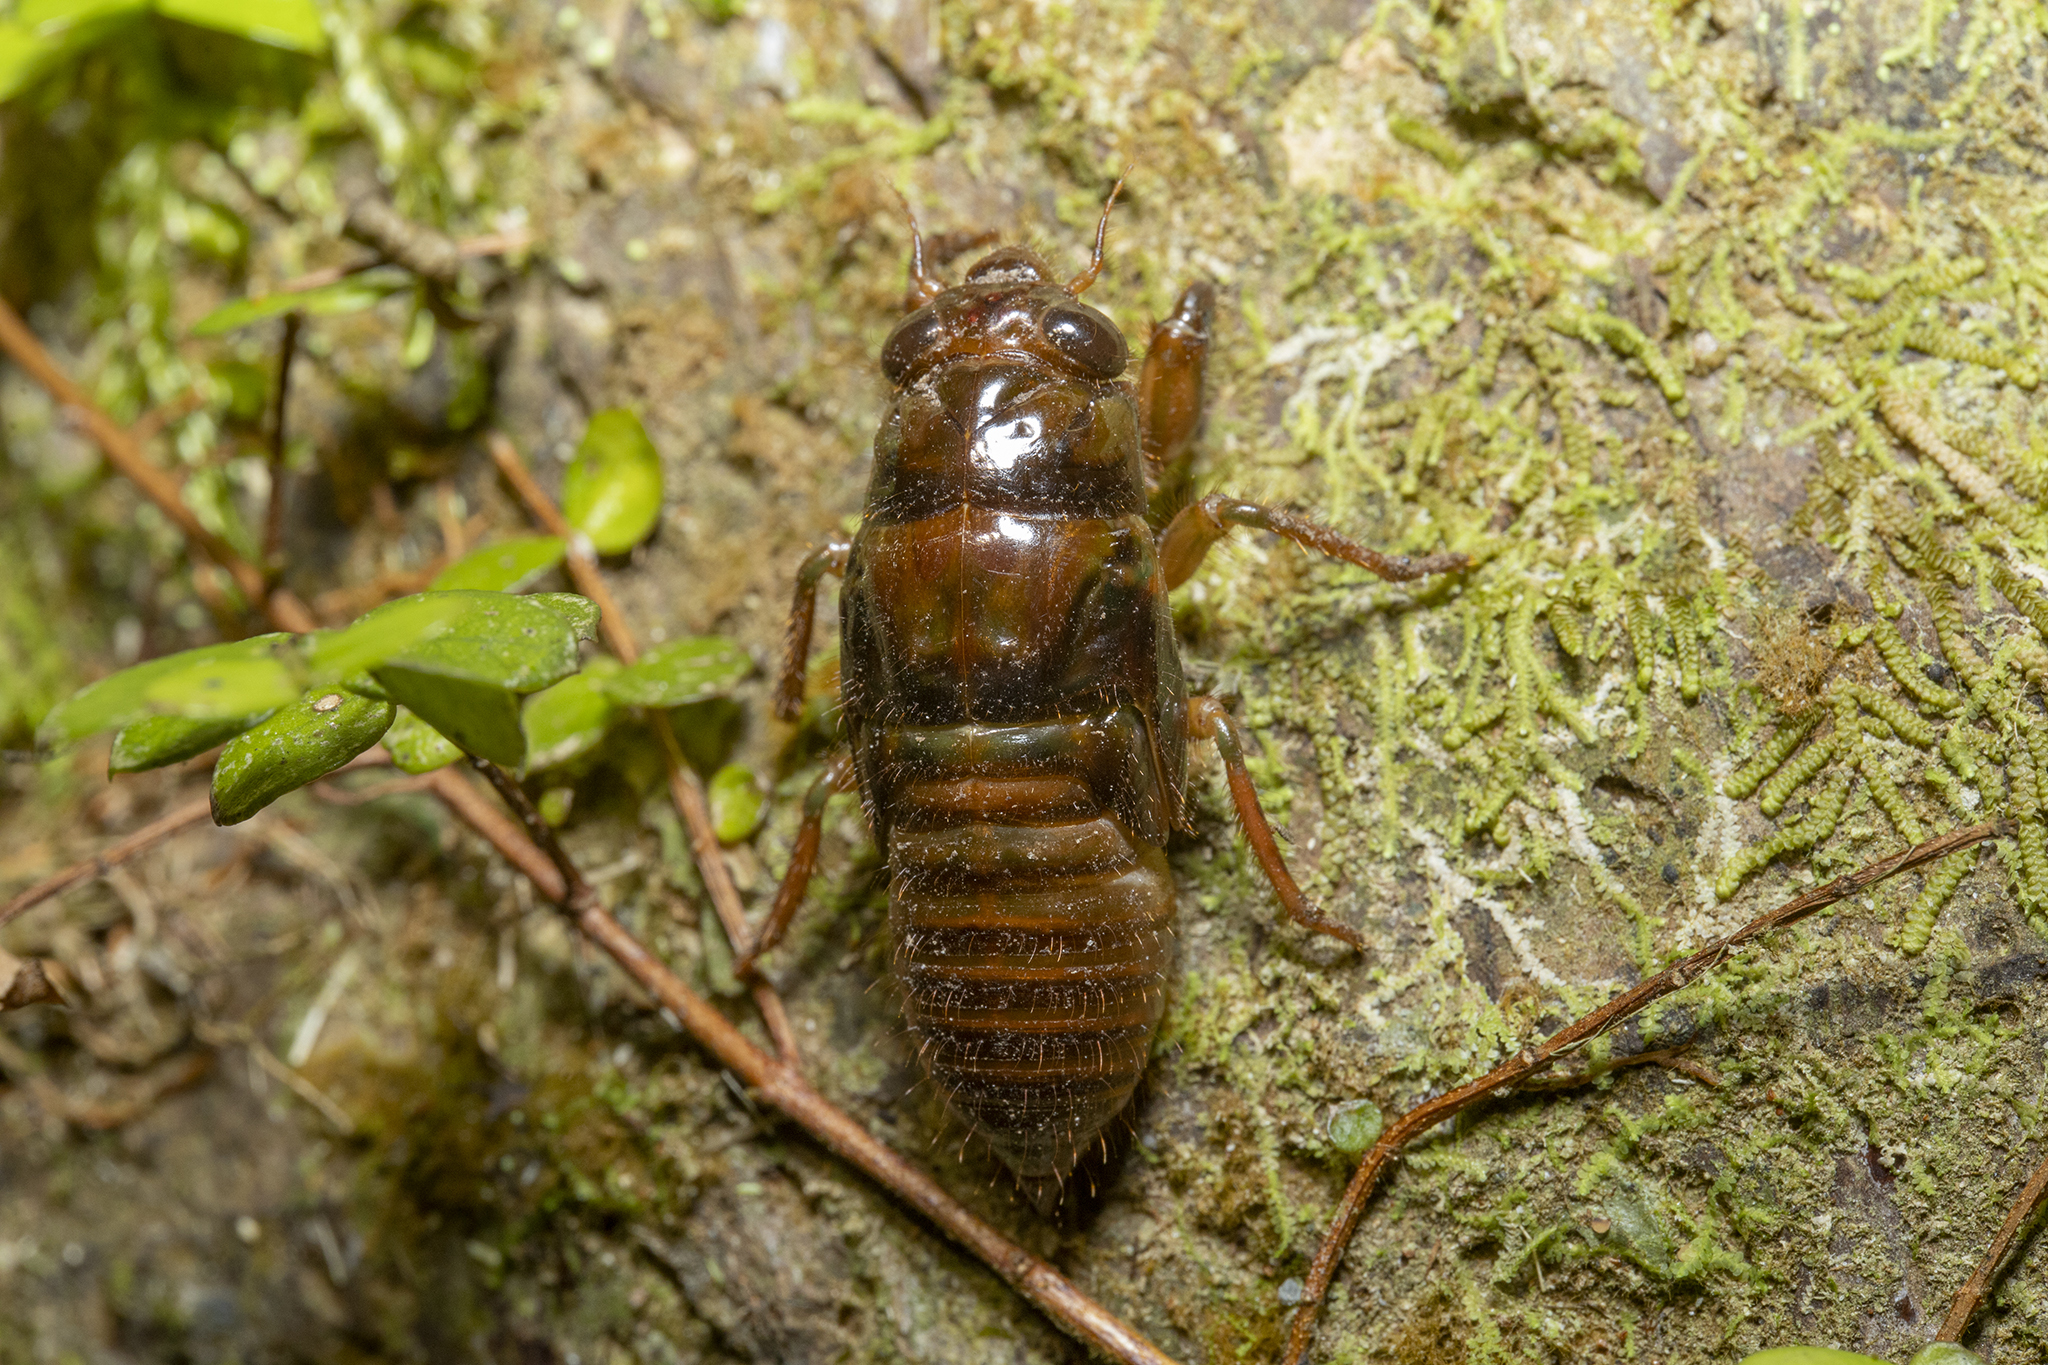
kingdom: Animalia
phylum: Arthropoda
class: Insecta
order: Hemiptera
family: Cicadidae
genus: Amphipsalta
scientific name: Amphipsalta zelandica
